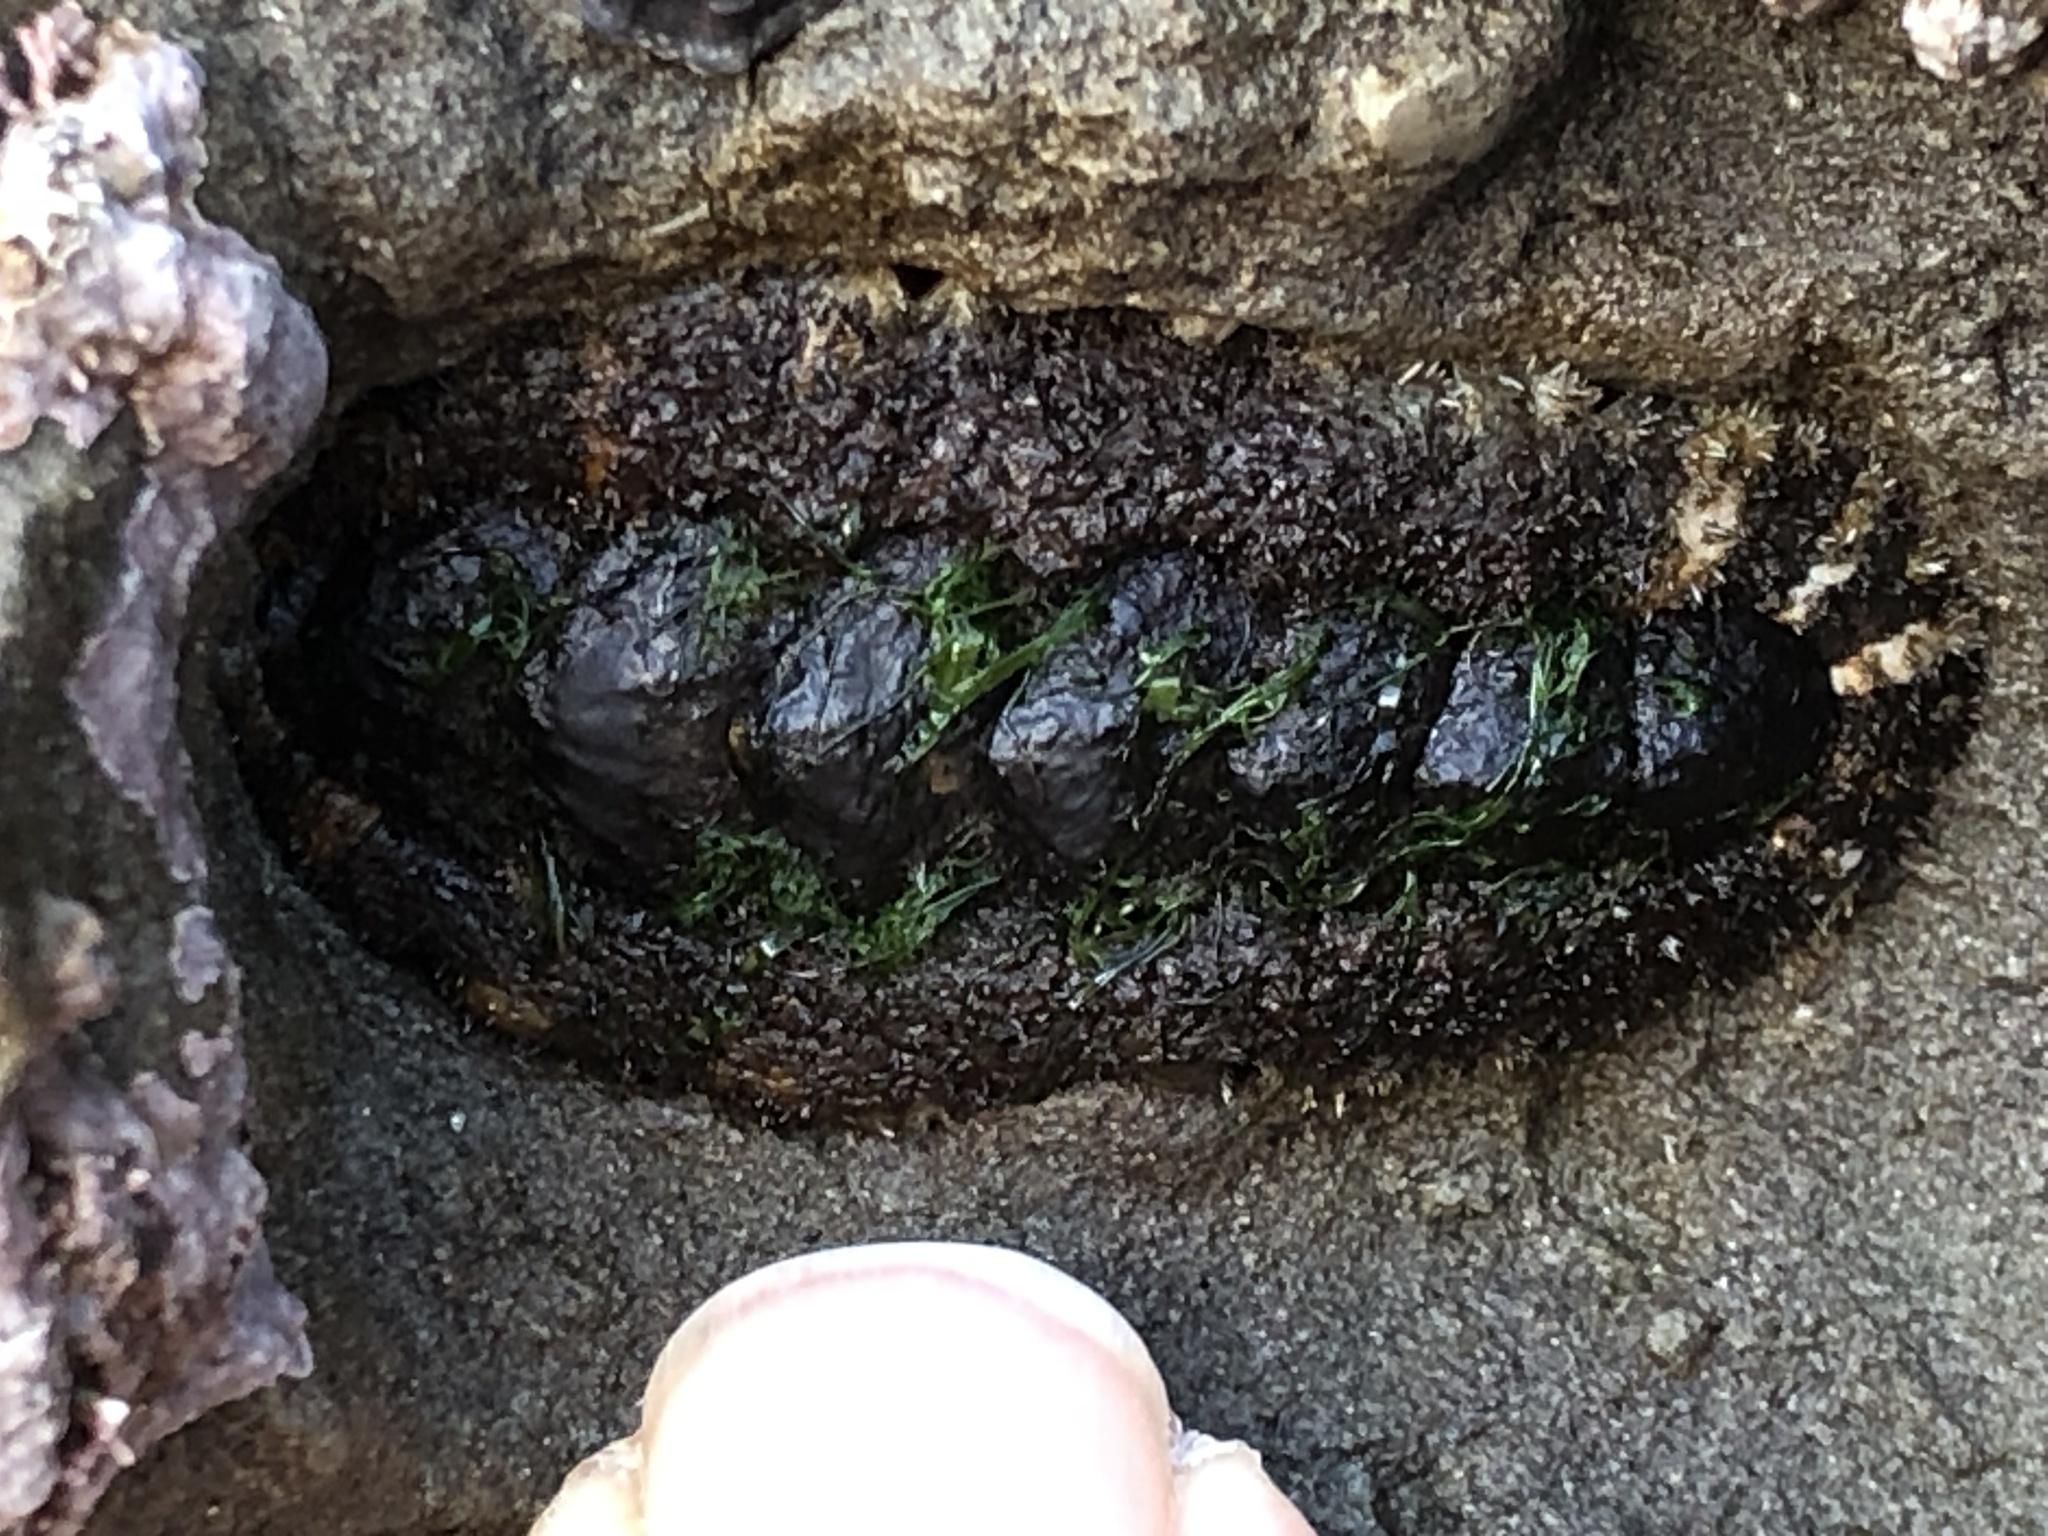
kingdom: Animalia
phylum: Mollusca
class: Polyplacophora
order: Chitonida
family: Tonicellidae
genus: Nuttallina
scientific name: Nuttallina californica
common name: California nuttall chiton
